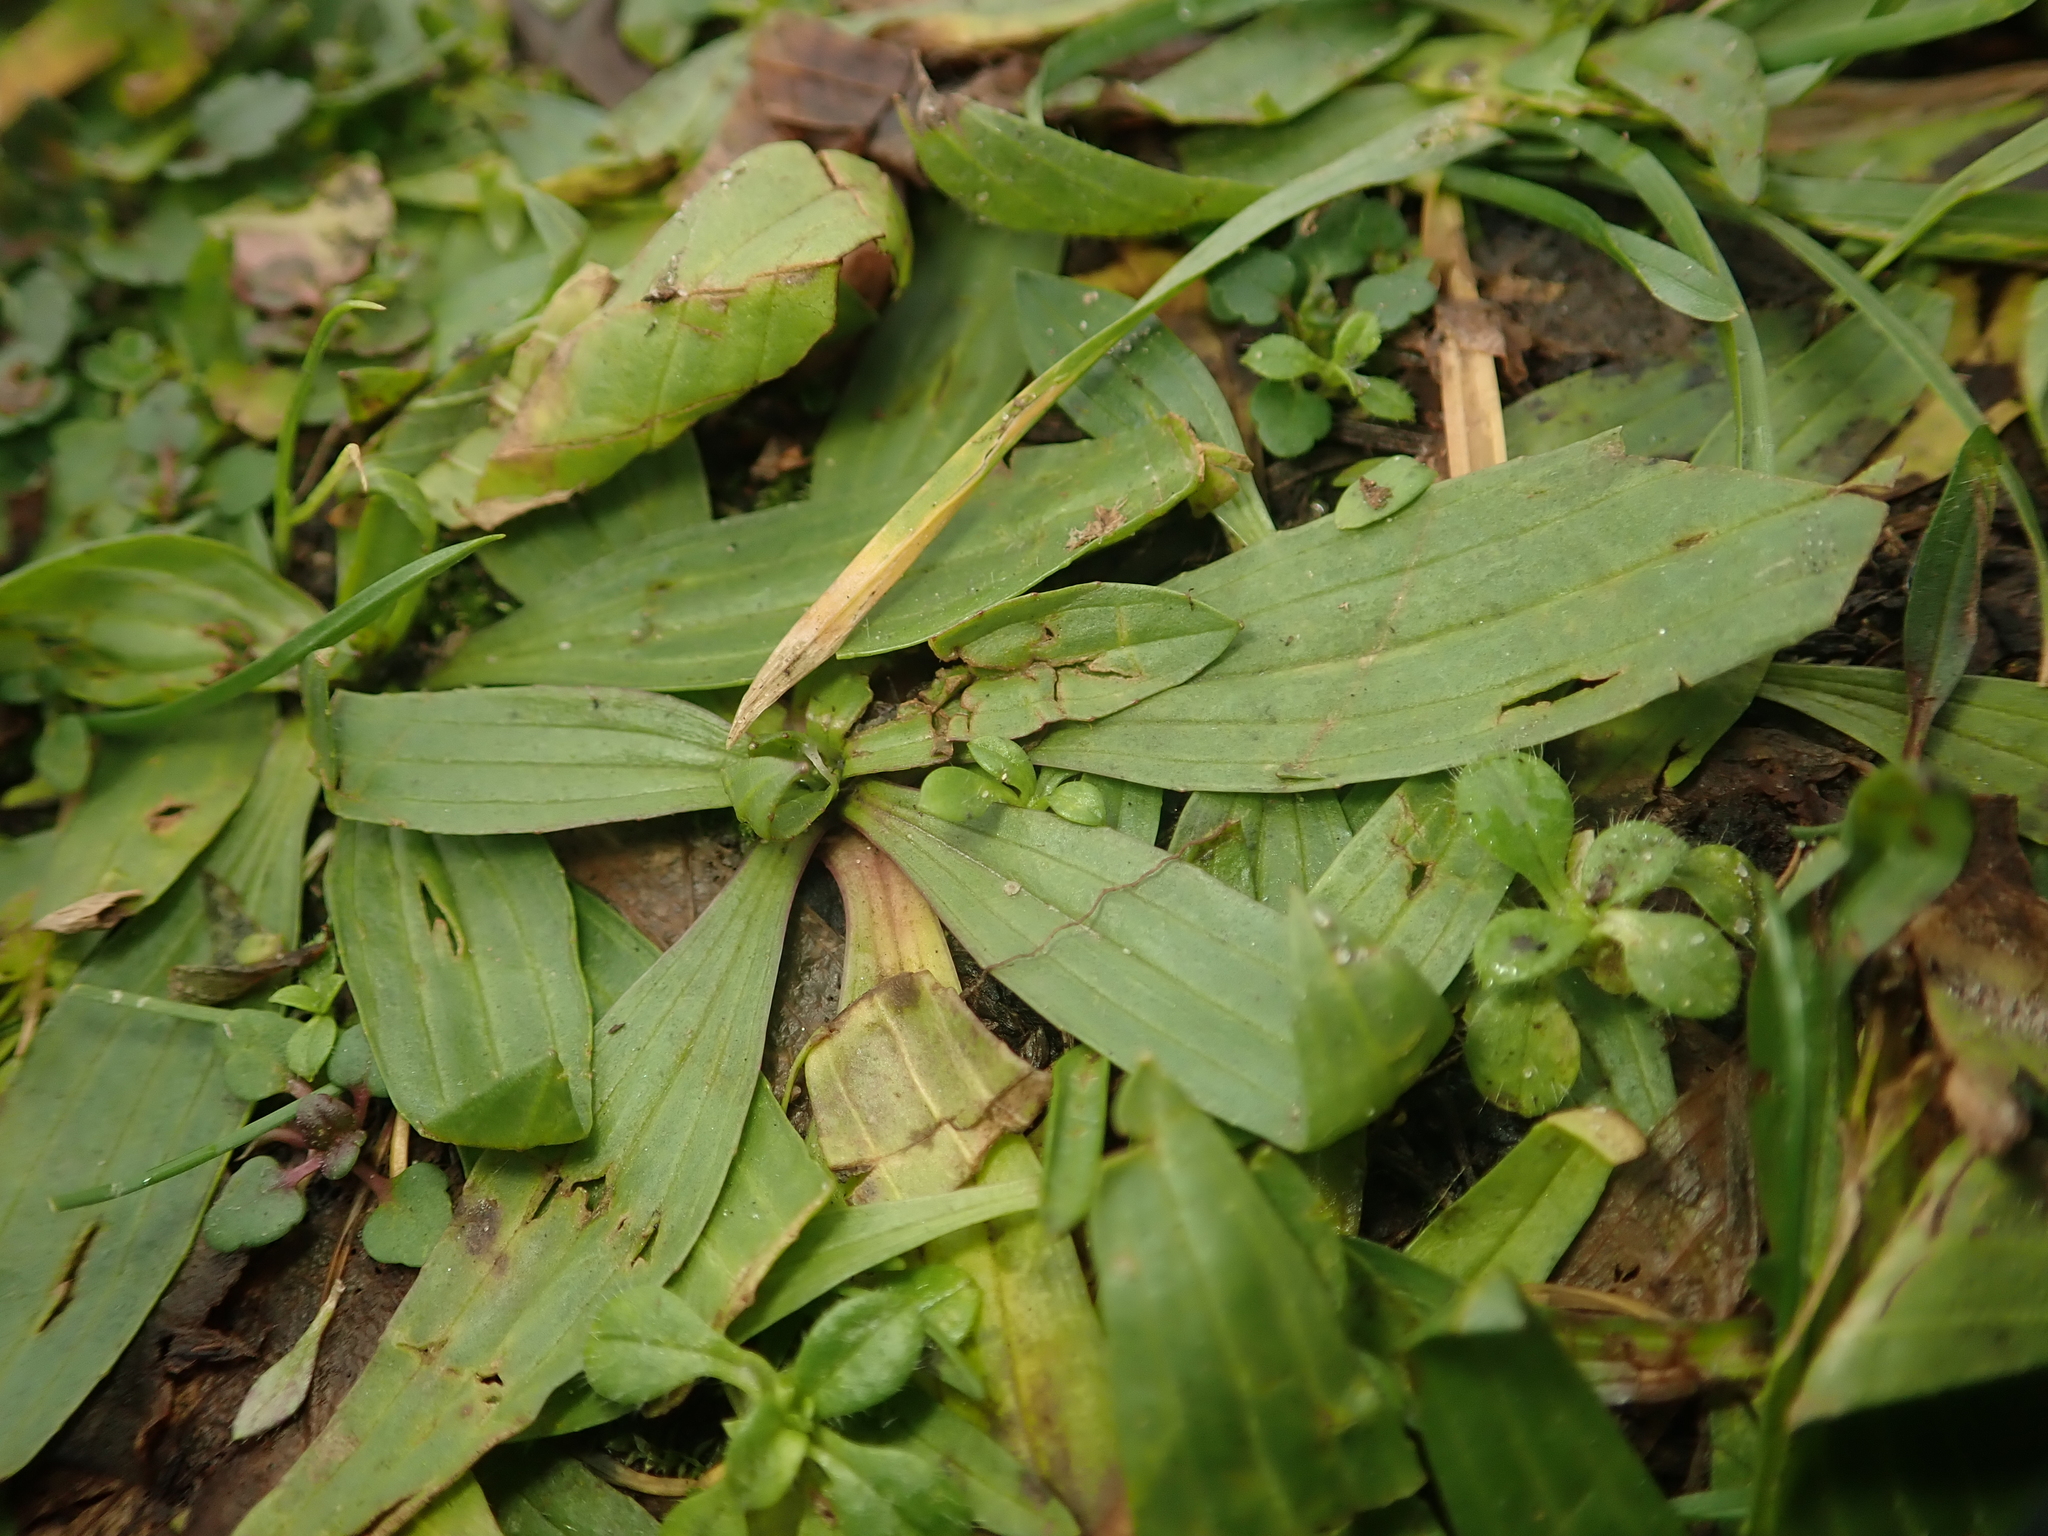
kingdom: Plantae
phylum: Tracheophyta
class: Magnoliopsida
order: Lamiales
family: Plantaginaceae
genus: Plantago
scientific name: Plantago lanceolata
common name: Ribwort plantain
